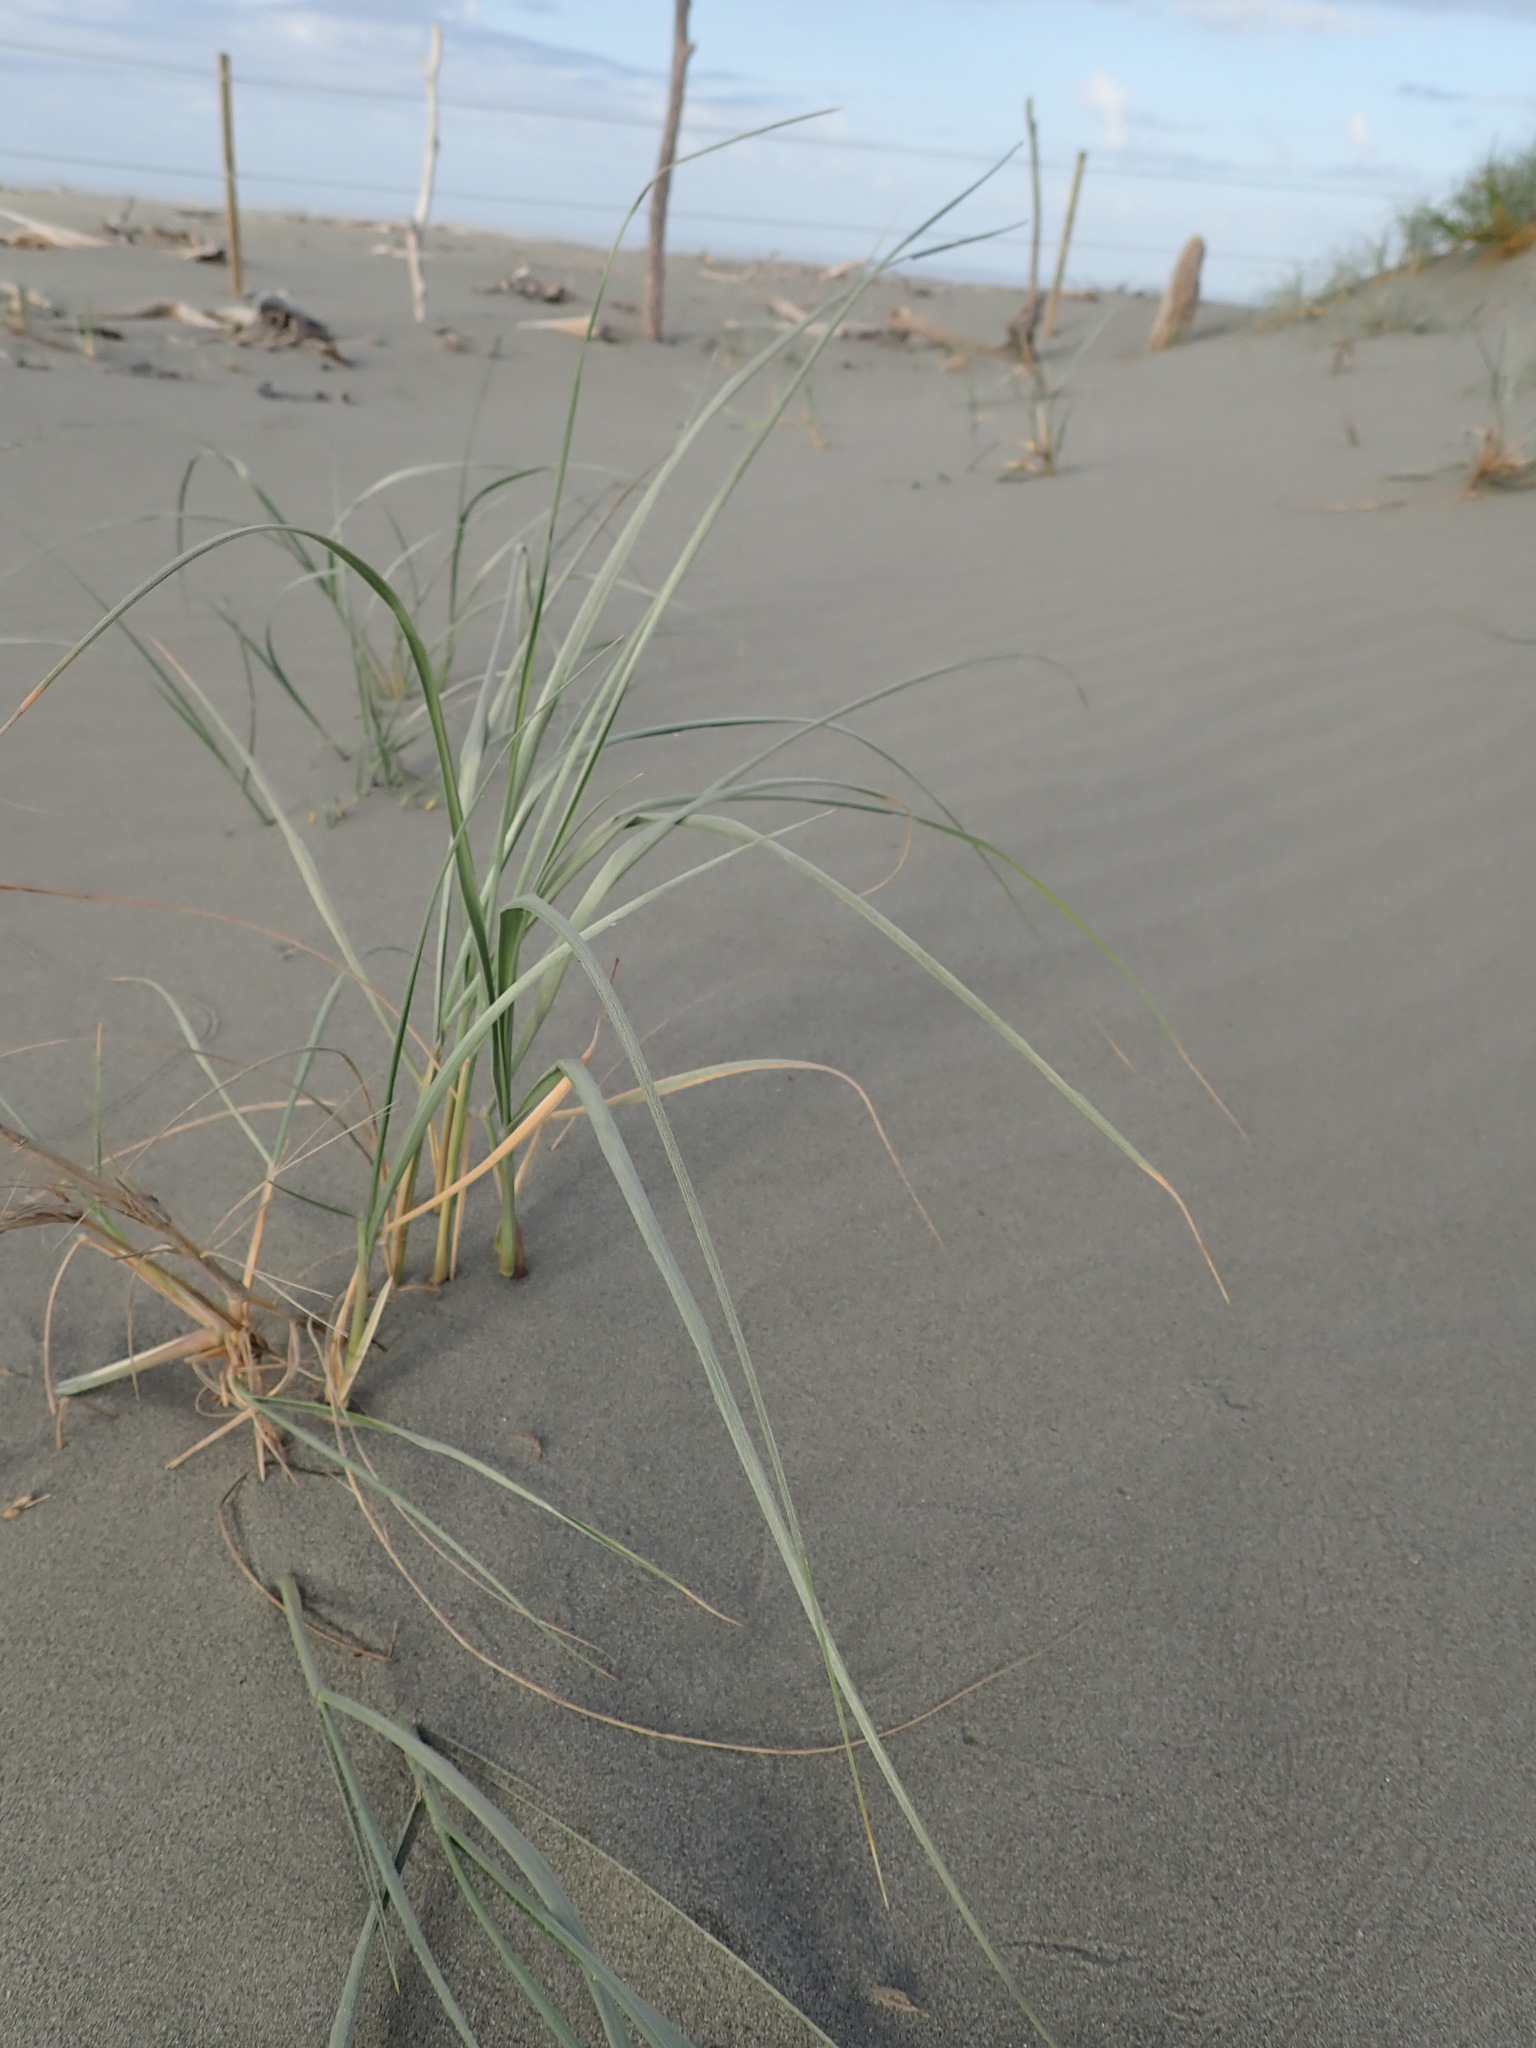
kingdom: Plantae
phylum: Tracheophyta
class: Liliopsida
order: Poales
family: Poaceae
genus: Spinifex
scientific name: Spinifex sericeus
